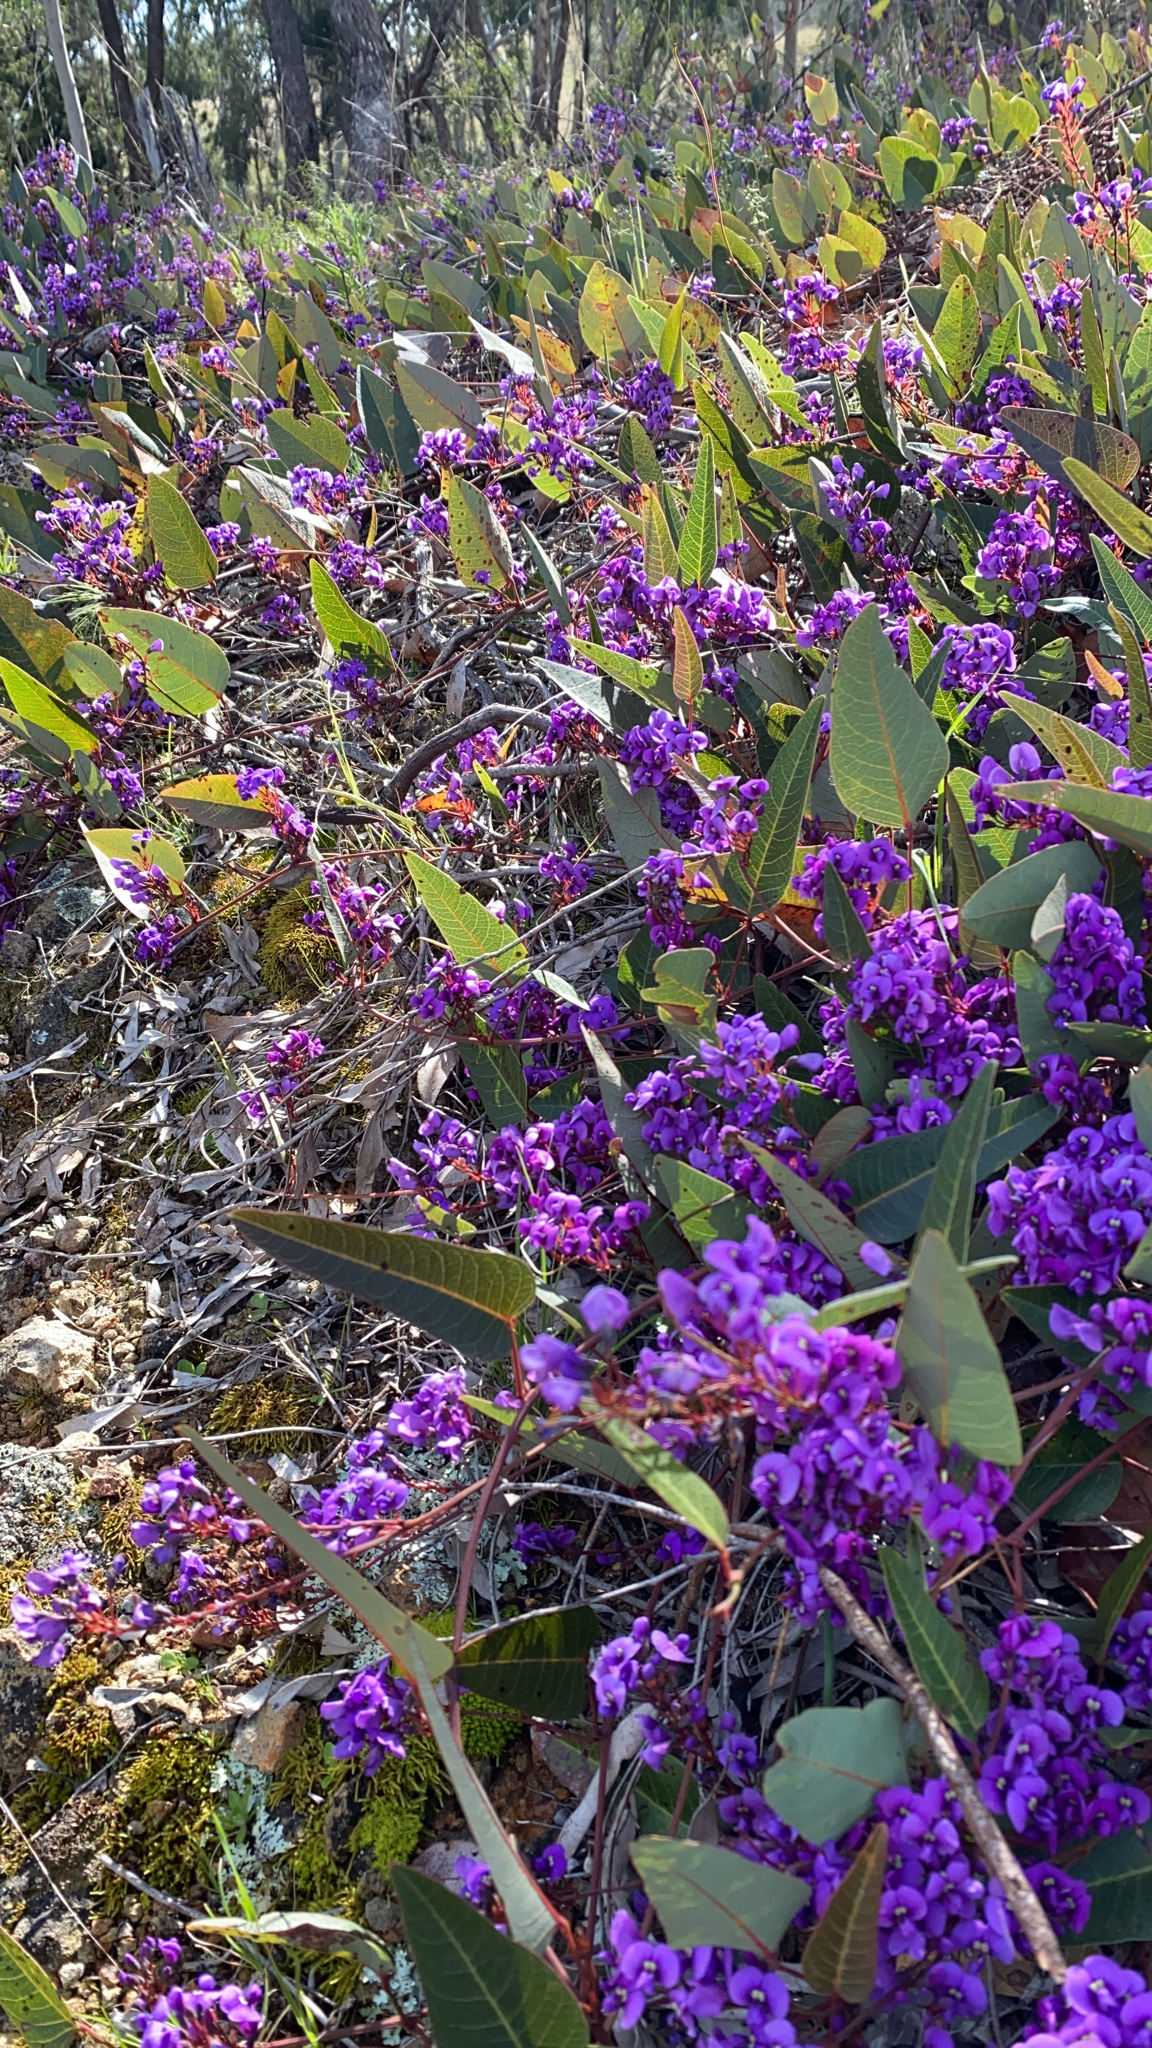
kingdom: Plantae
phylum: Tracheophyta
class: Magnoliopsida
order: Fabales
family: Fabaceae
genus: Hardenbergia
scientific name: Hardenbergia violacea
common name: Coral-pea
